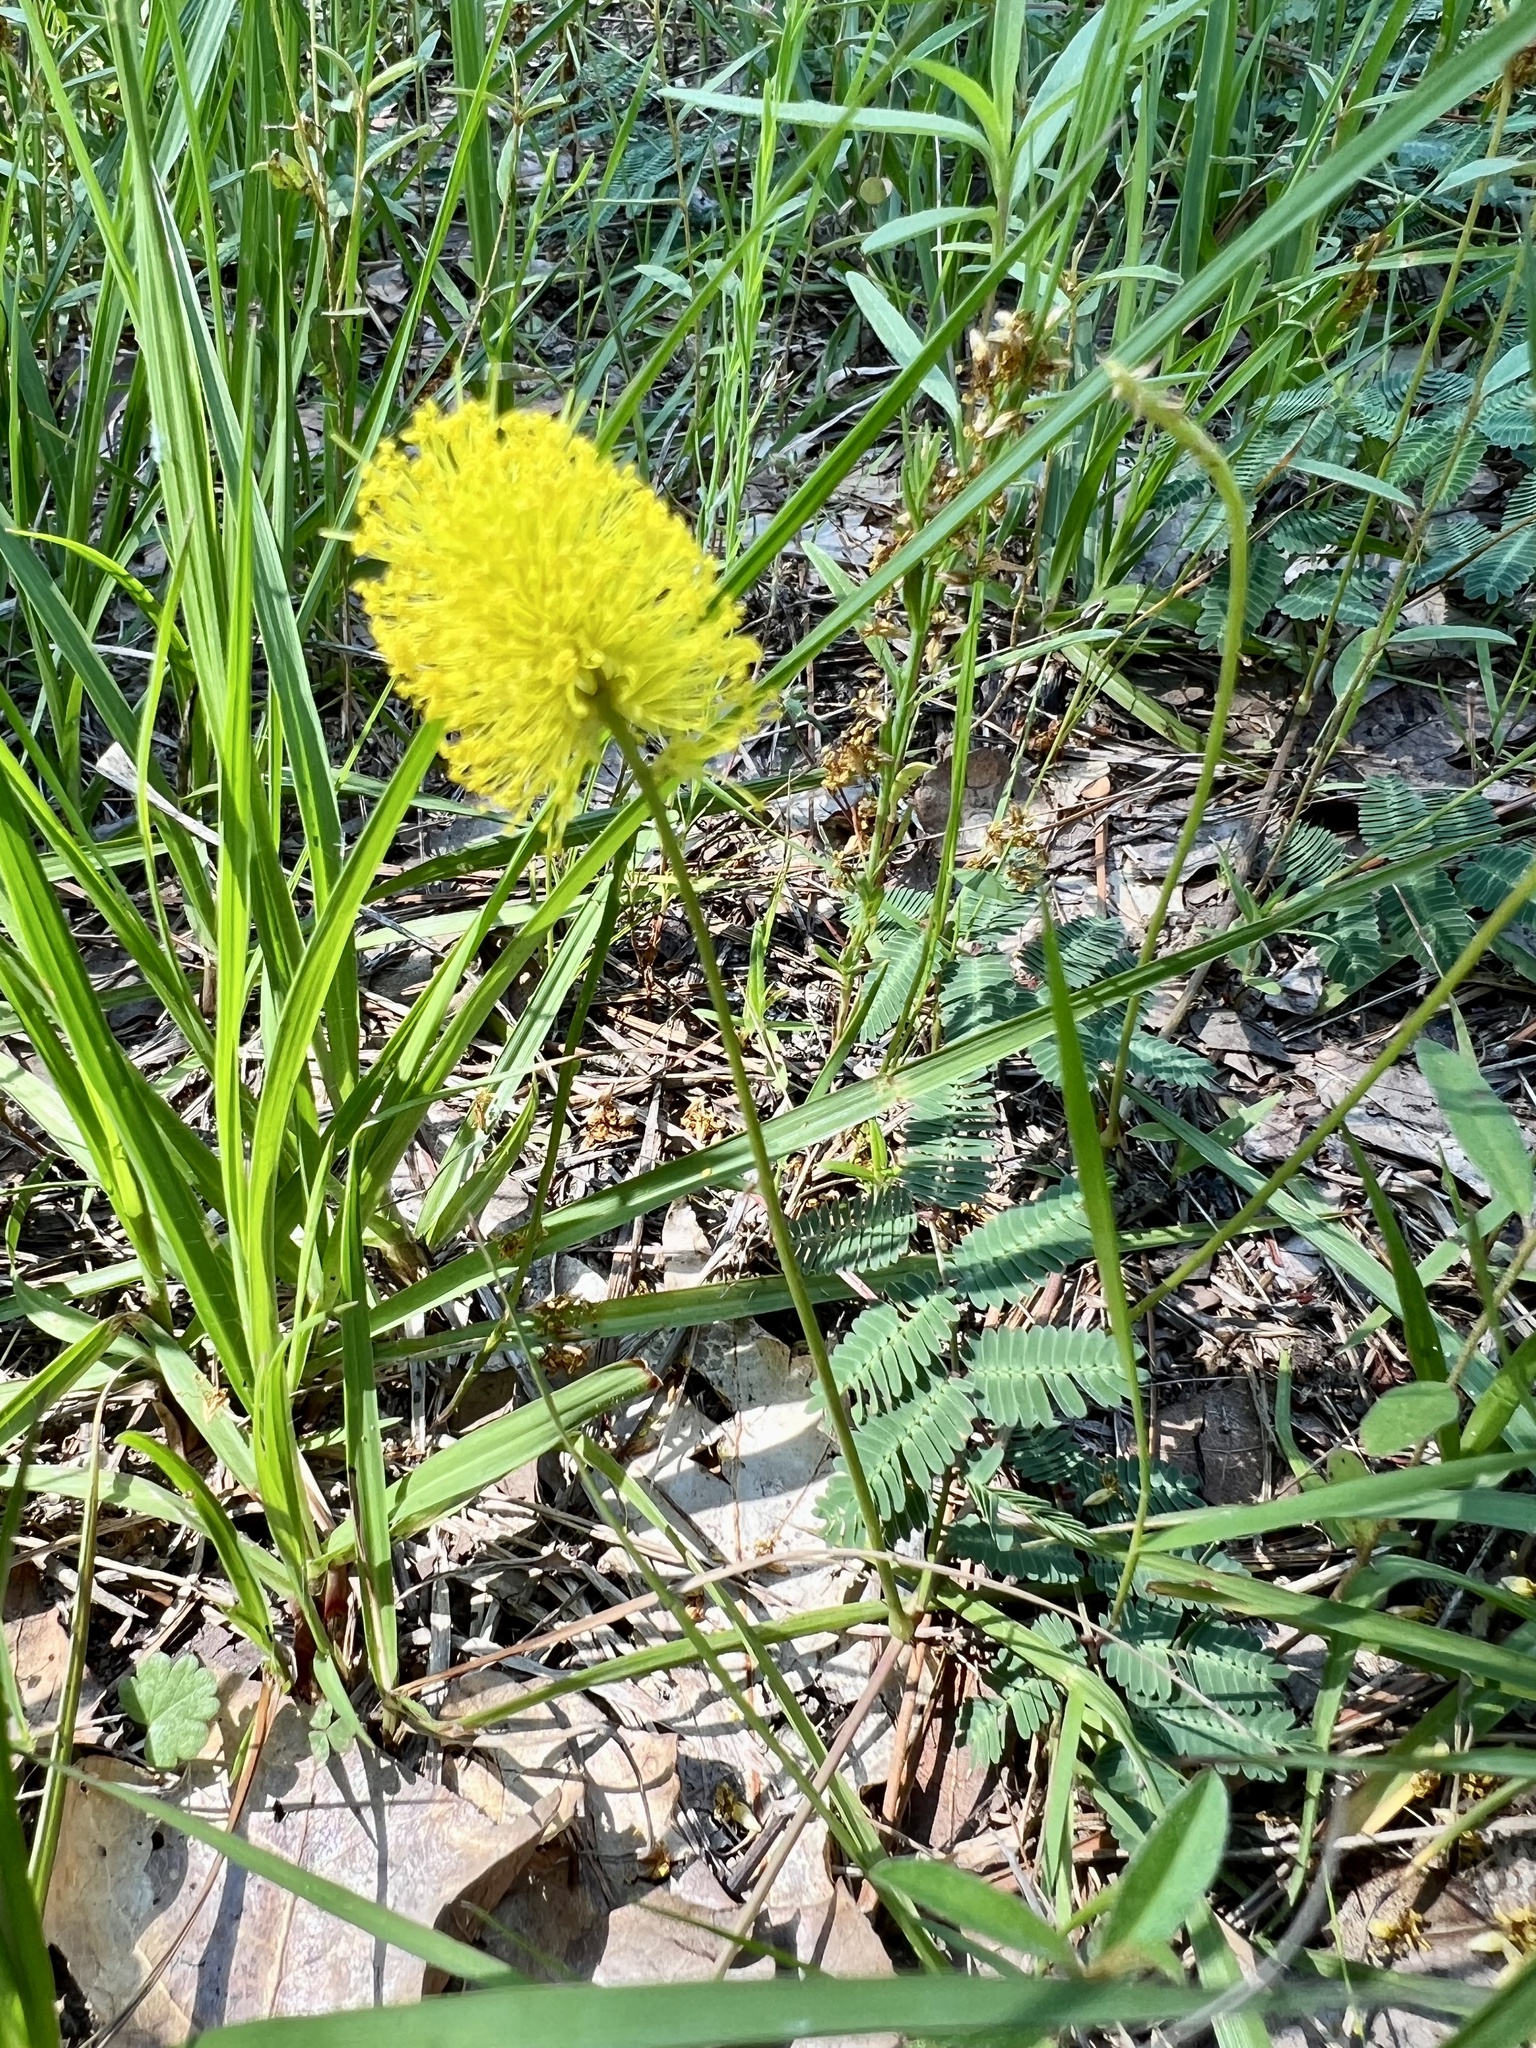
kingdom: Plantae
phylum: Tracheophyta
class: Magnoliopsida
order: Fabales
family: Fabaceae
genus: Neptunia
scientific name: Neptunia lutea
